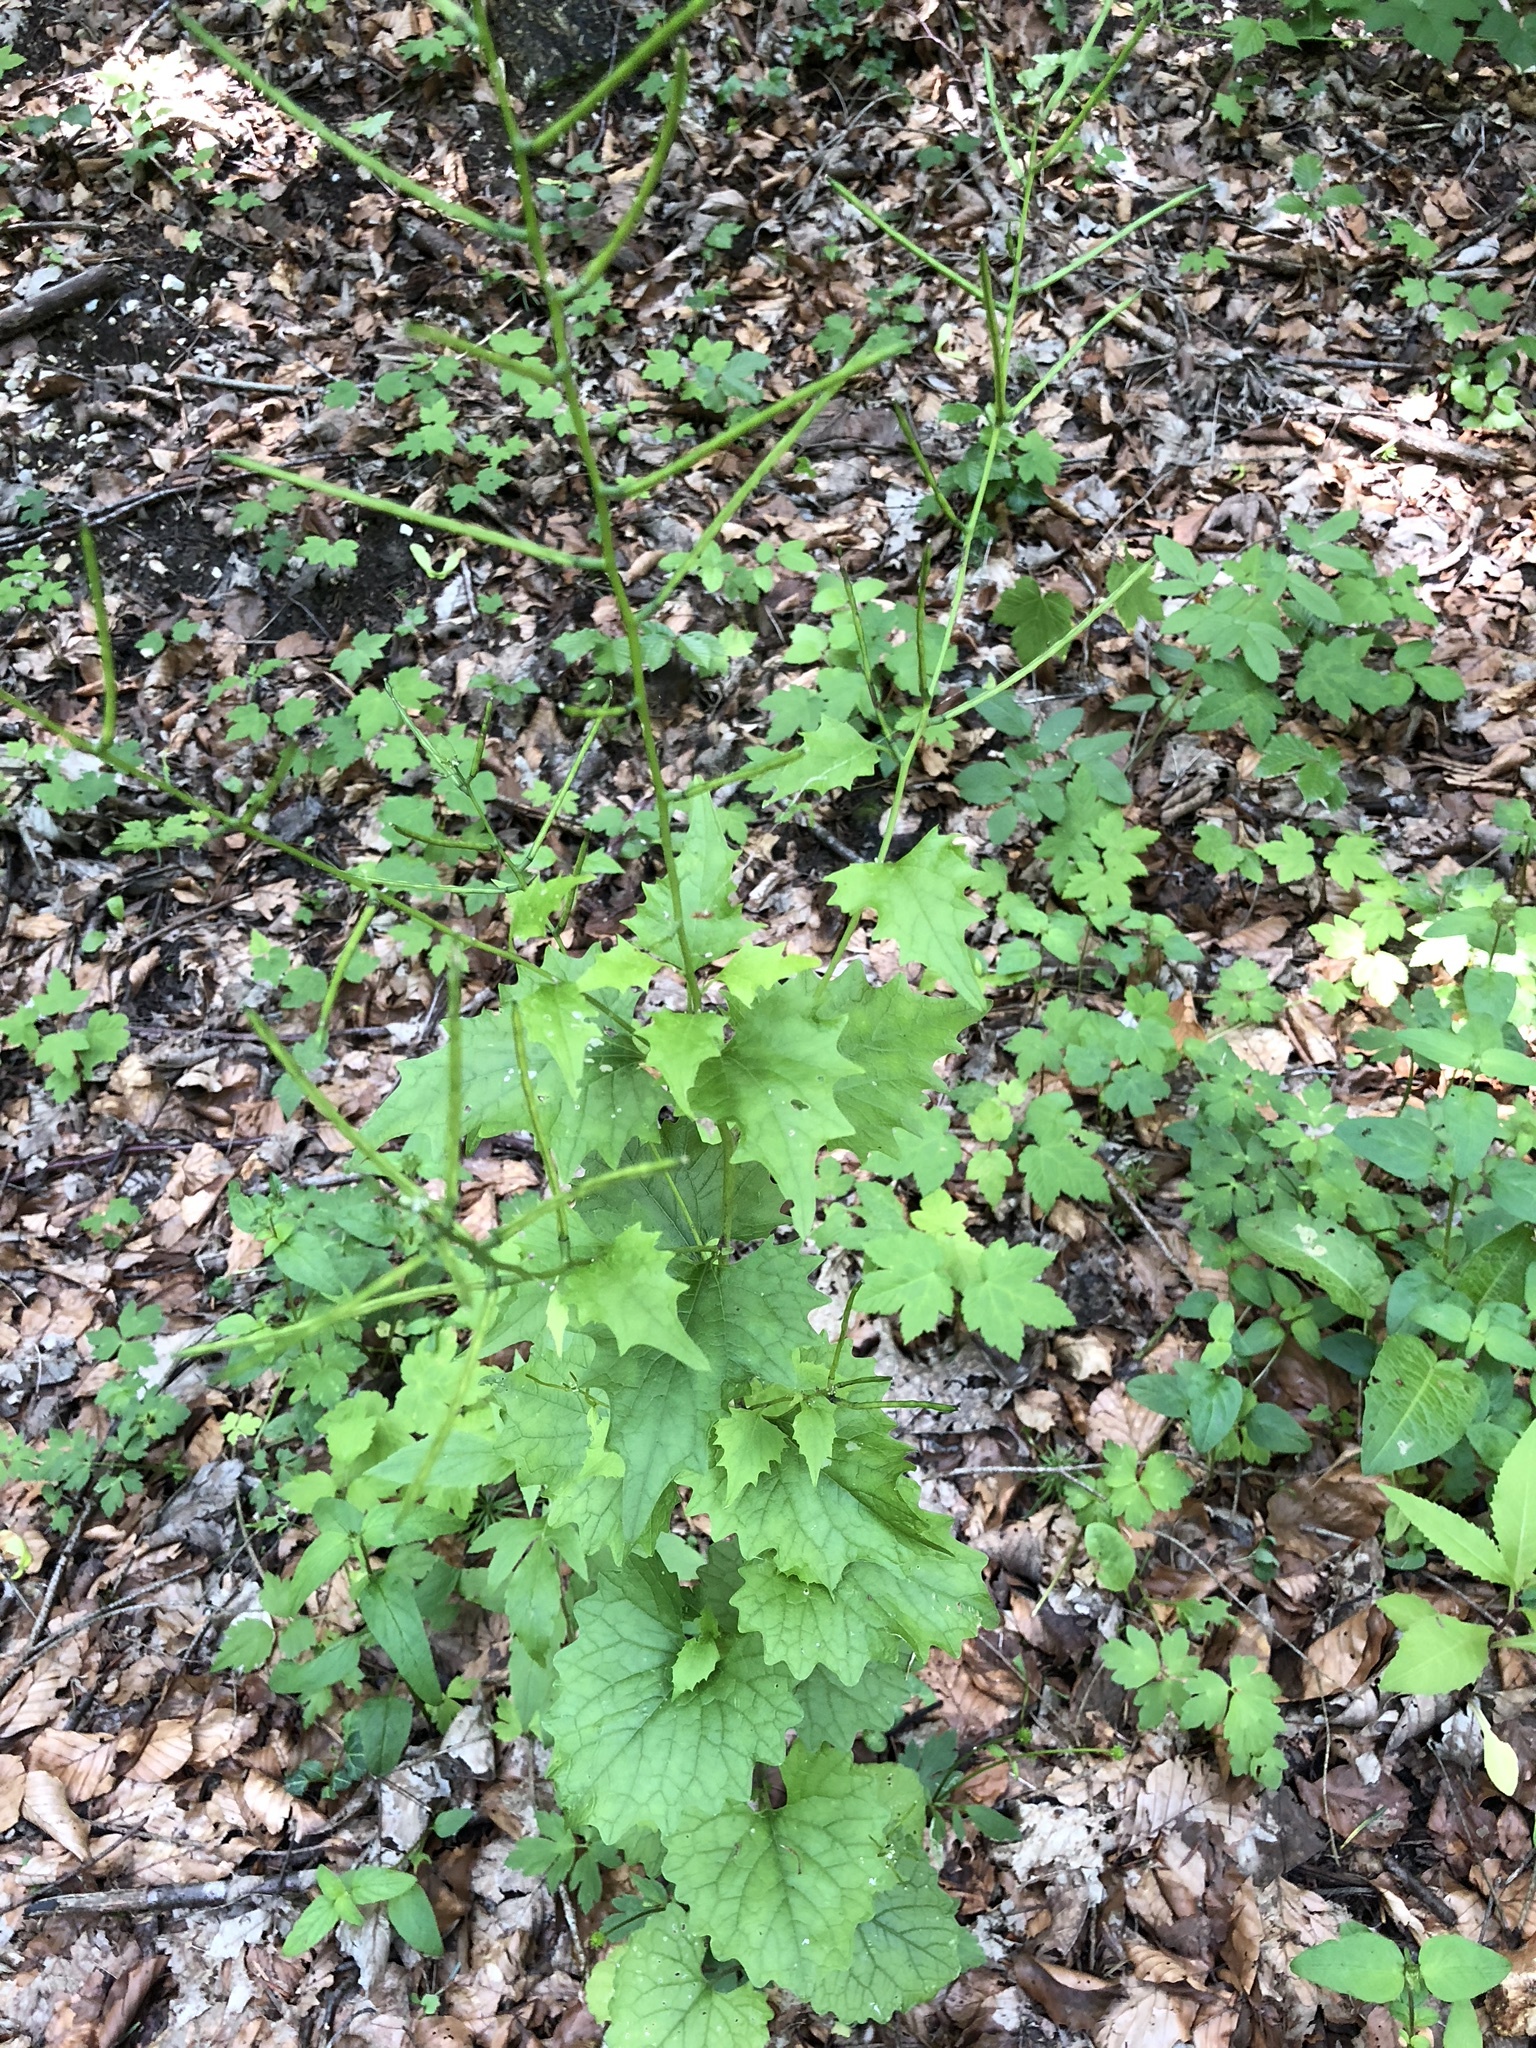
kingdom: Plantae
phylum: Tracheophyta
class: Magnoliopsida
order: Brassicales
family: Brassicaceae
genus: Alliaria
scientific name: Alliaria petiolata
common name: Garlic mustard
